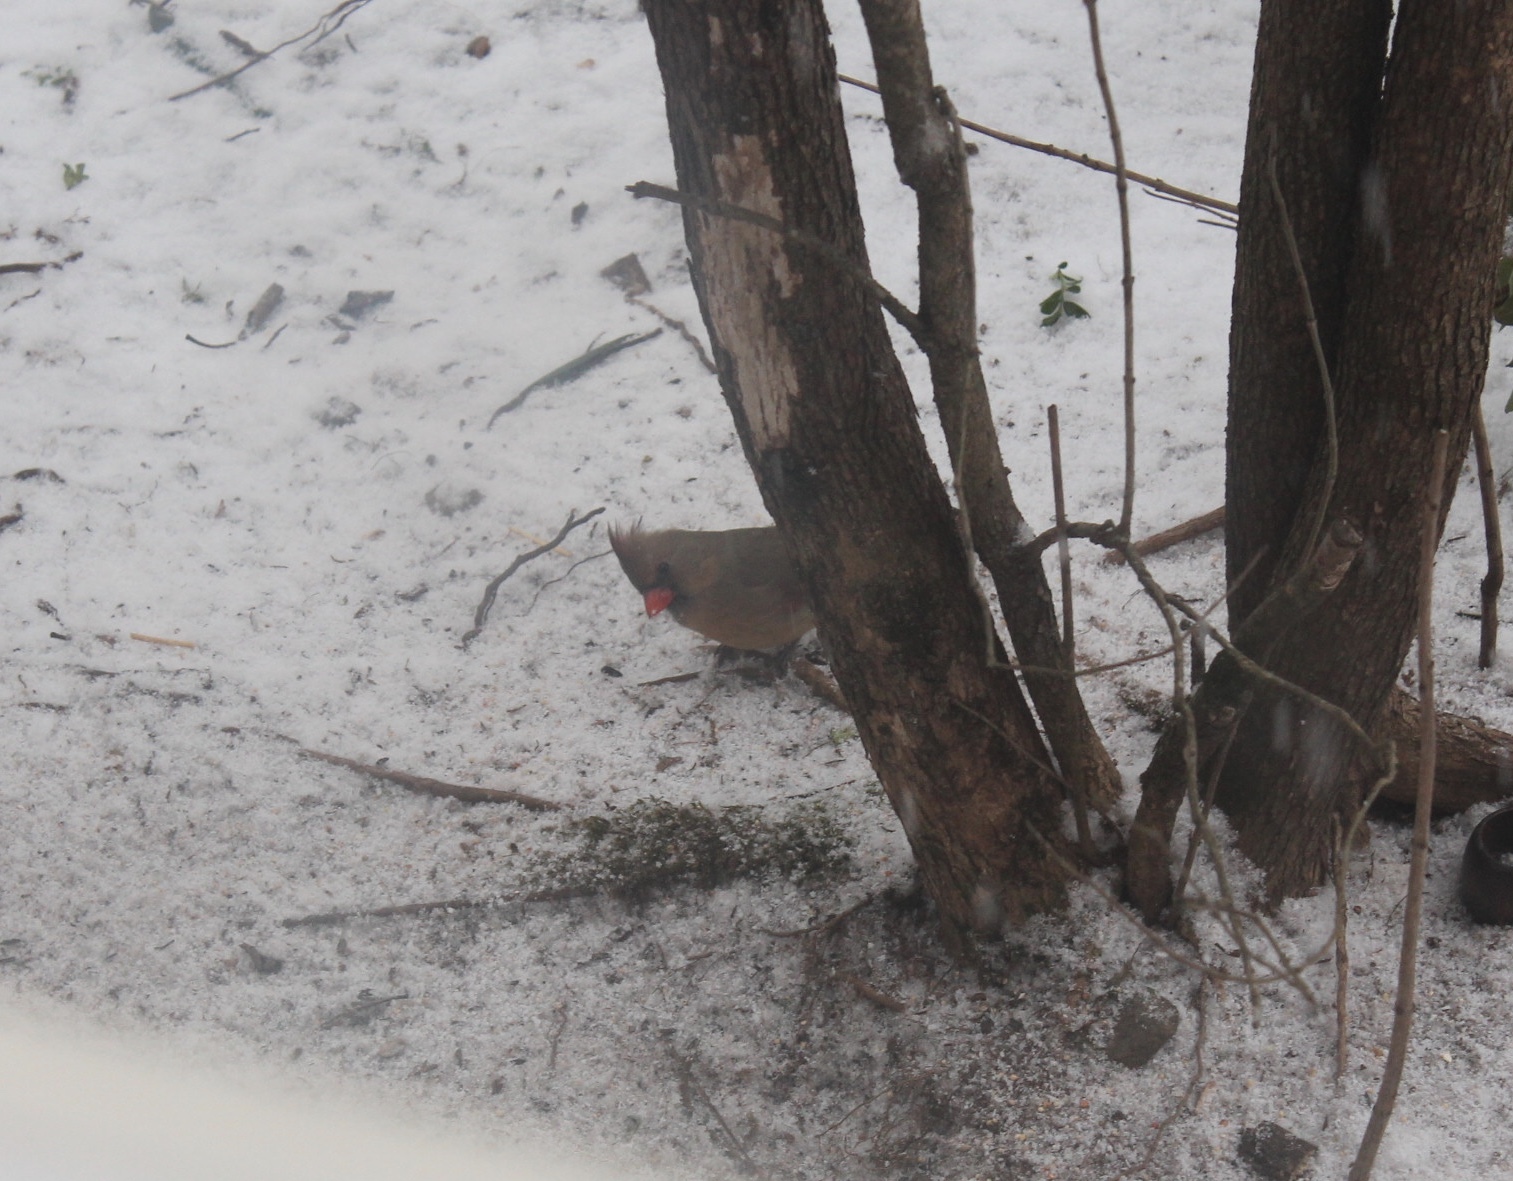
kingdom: Animalia
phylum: Chordata
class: Aves
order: Passeriformes
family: Cardinalidae
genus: Cardinalis
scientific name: Cardinalis cardinalis
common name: Northern cardinal
